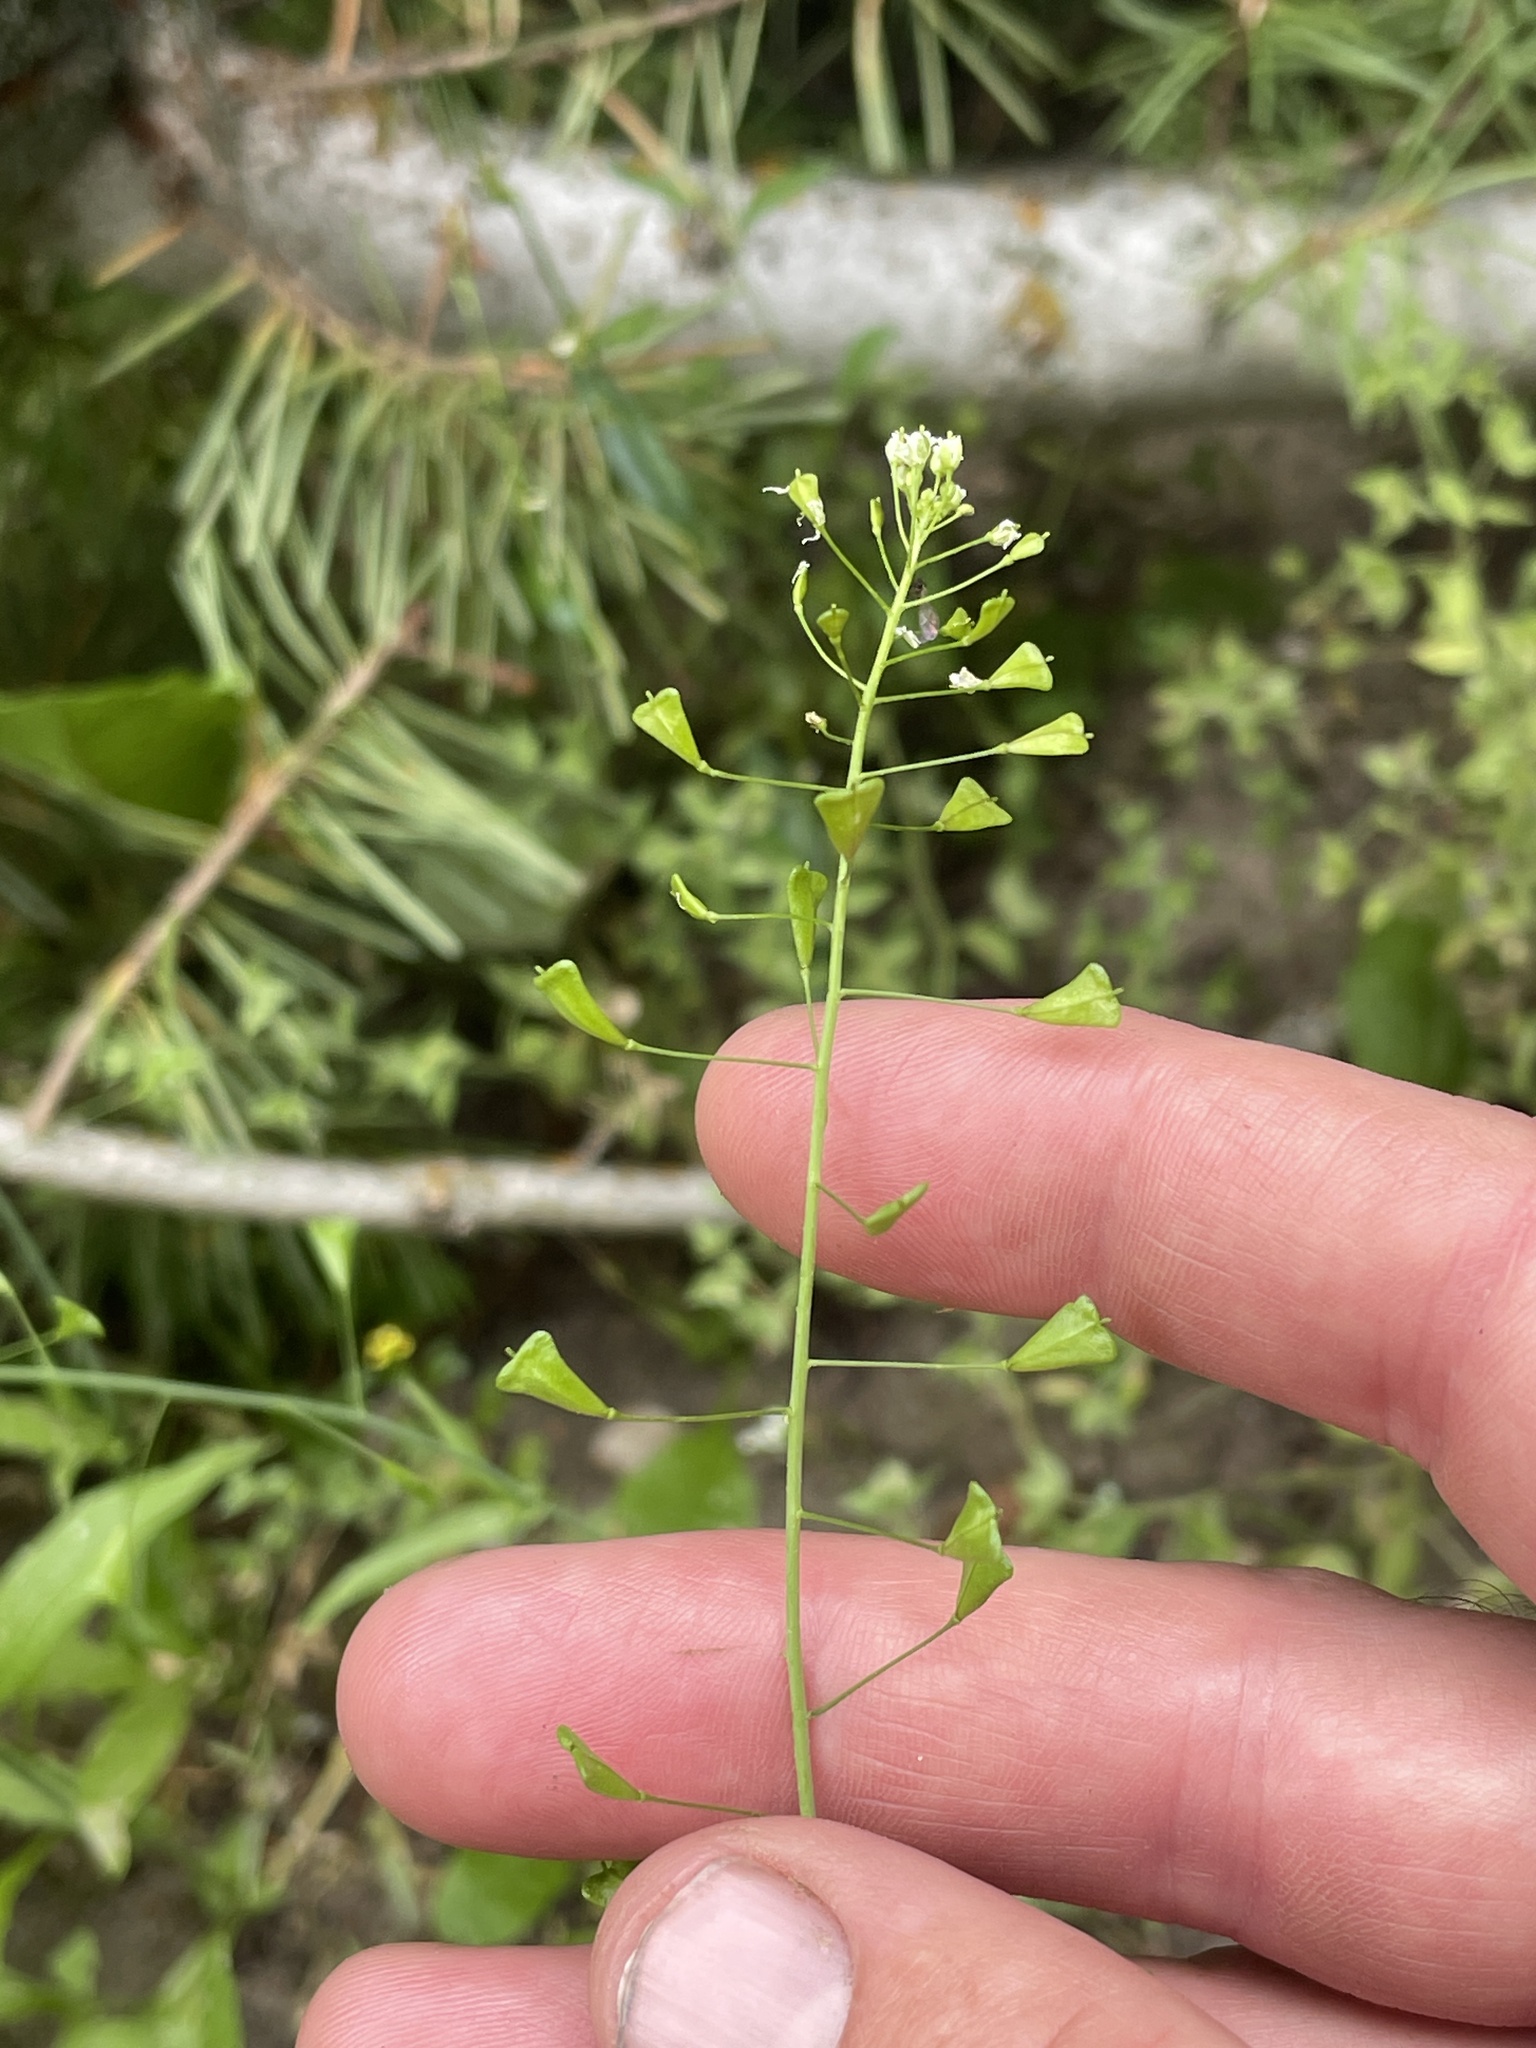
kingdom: Plantae
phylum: Tracheophyta
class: Magnoliopsida
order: Brassicales
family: Brassicaceae
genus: Capsella
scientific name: Capsella bursa-pastoris
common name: Shepherd's purse
